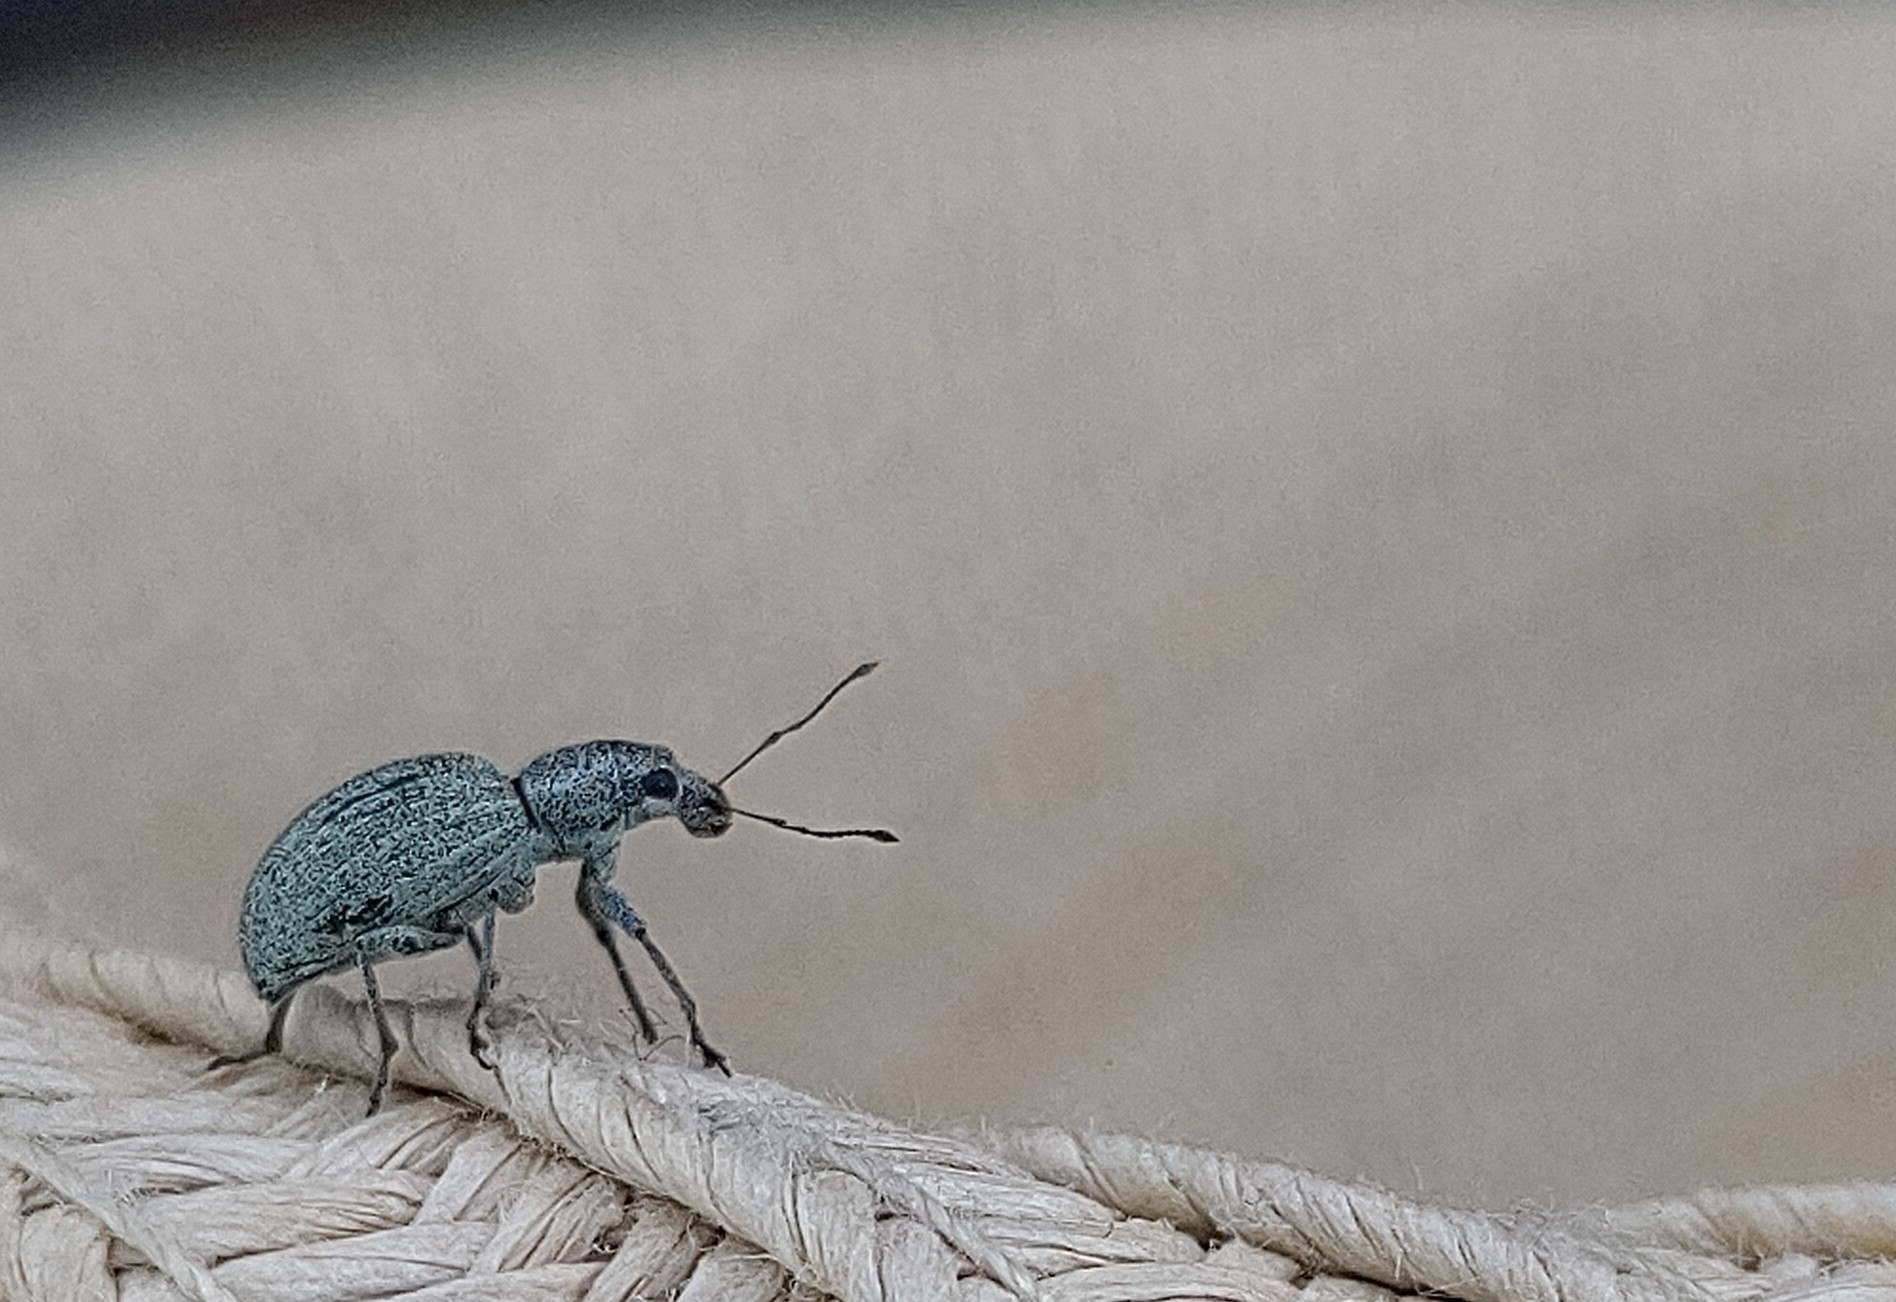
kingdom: Animalia
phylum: Arthropoda
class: Insecta
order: Coleoptera
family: Curculionidae
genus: Eusomus
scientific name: Eusomus ovulum
